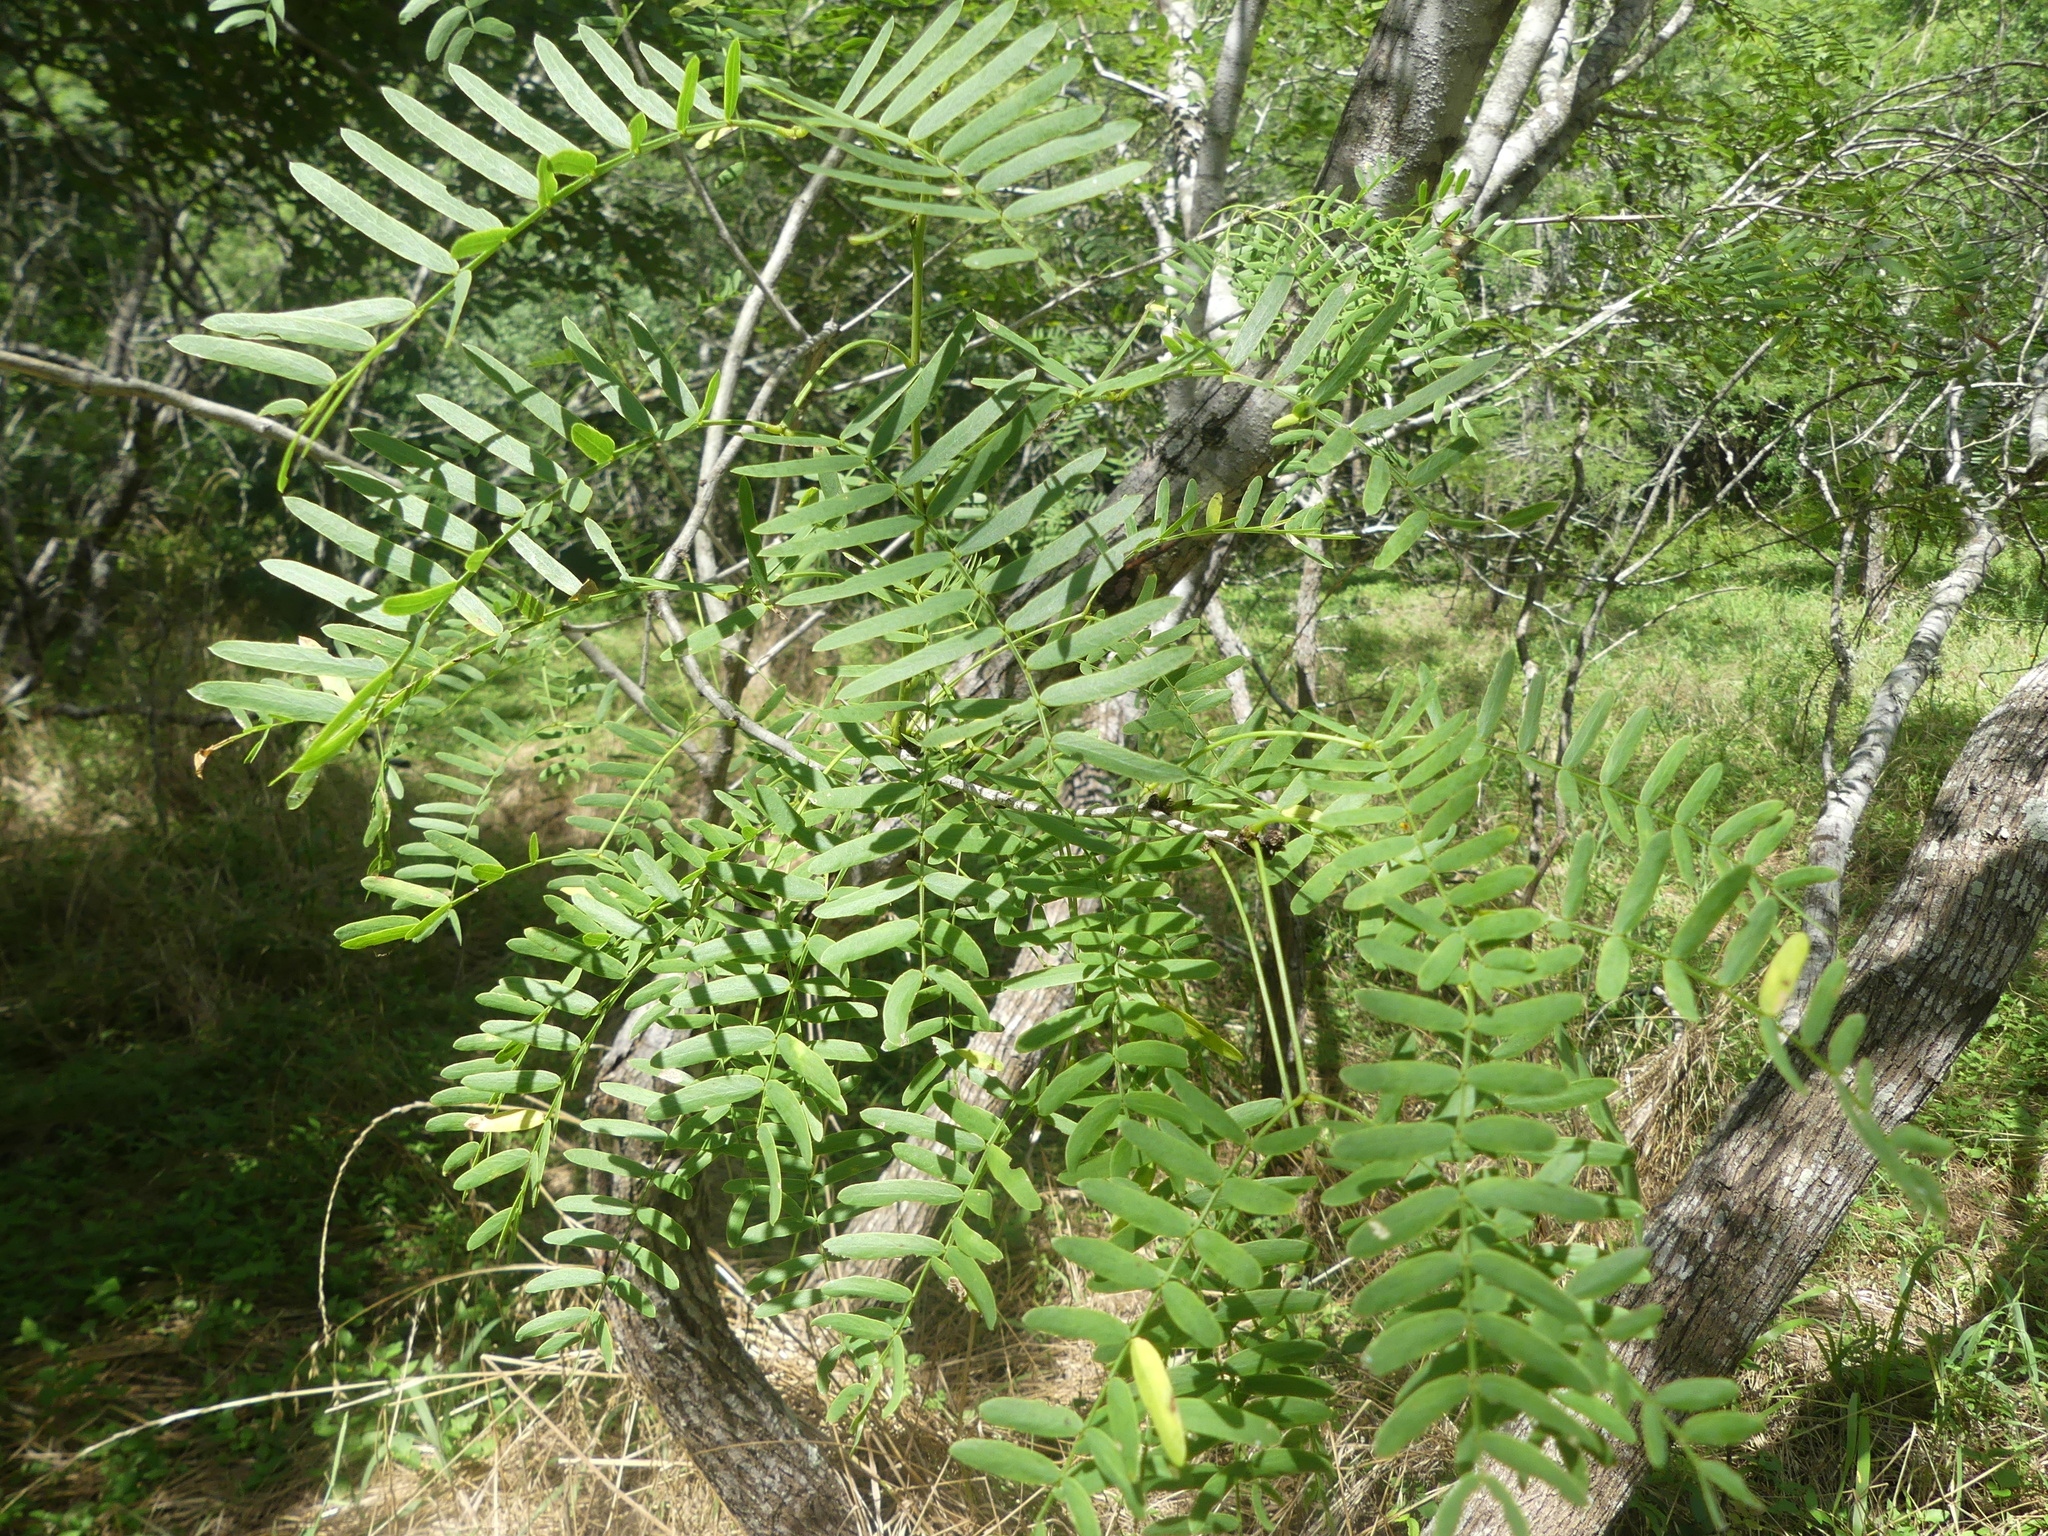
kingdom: Plantae
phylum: Tracheophyta
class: Magnoliopsida
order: Fabales
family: Fabaceae
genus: Prosopis
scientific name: Prosopis glandulosa
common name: Honey mesquite
